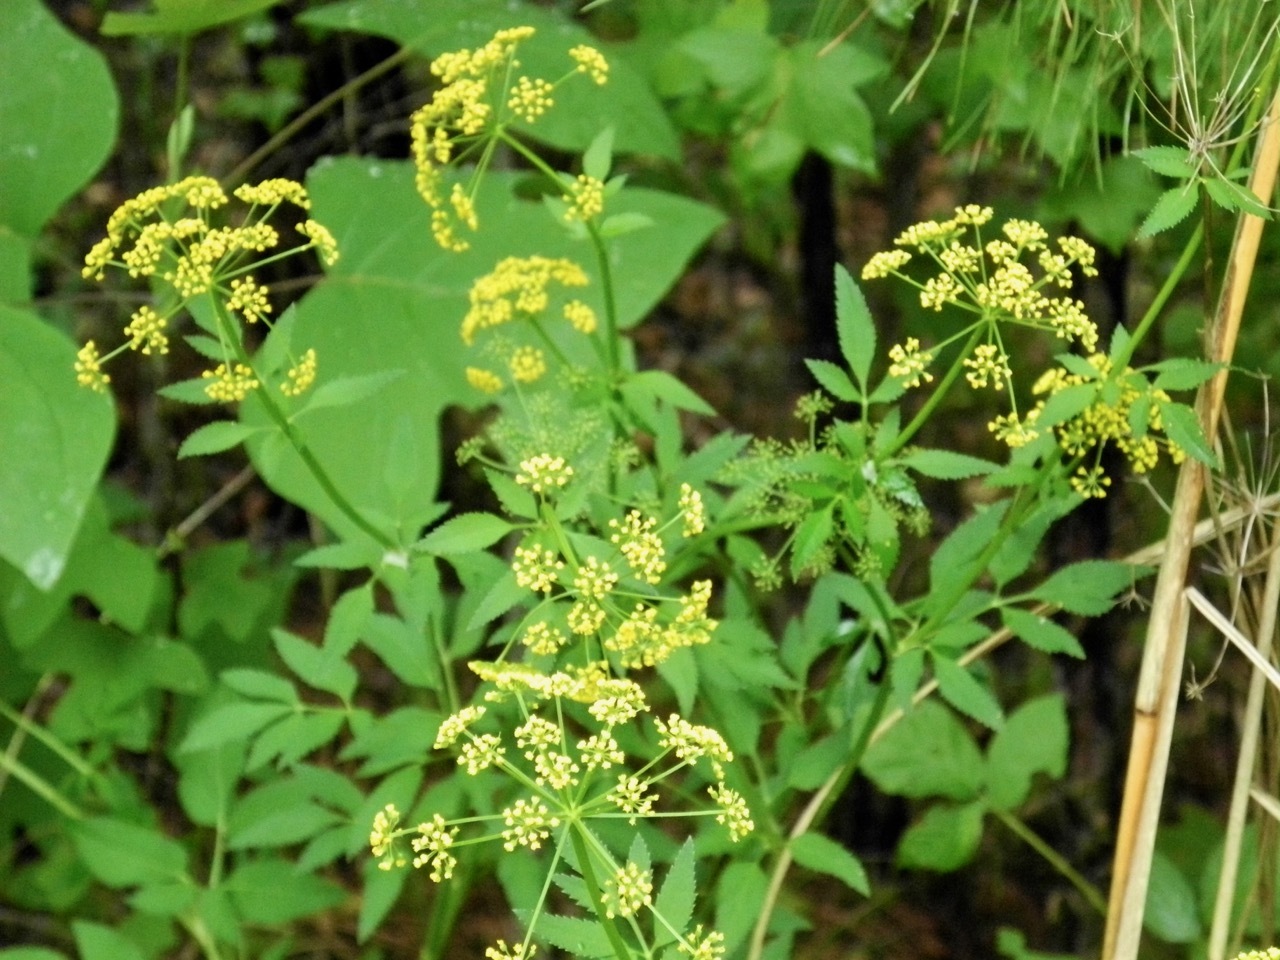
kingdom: Plantae
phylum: Tracheophyta
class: Magnoliopsida
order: Apiales
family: Apiaceae
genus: Zizia
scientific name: Zizia aurea
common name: Golden alexanders
